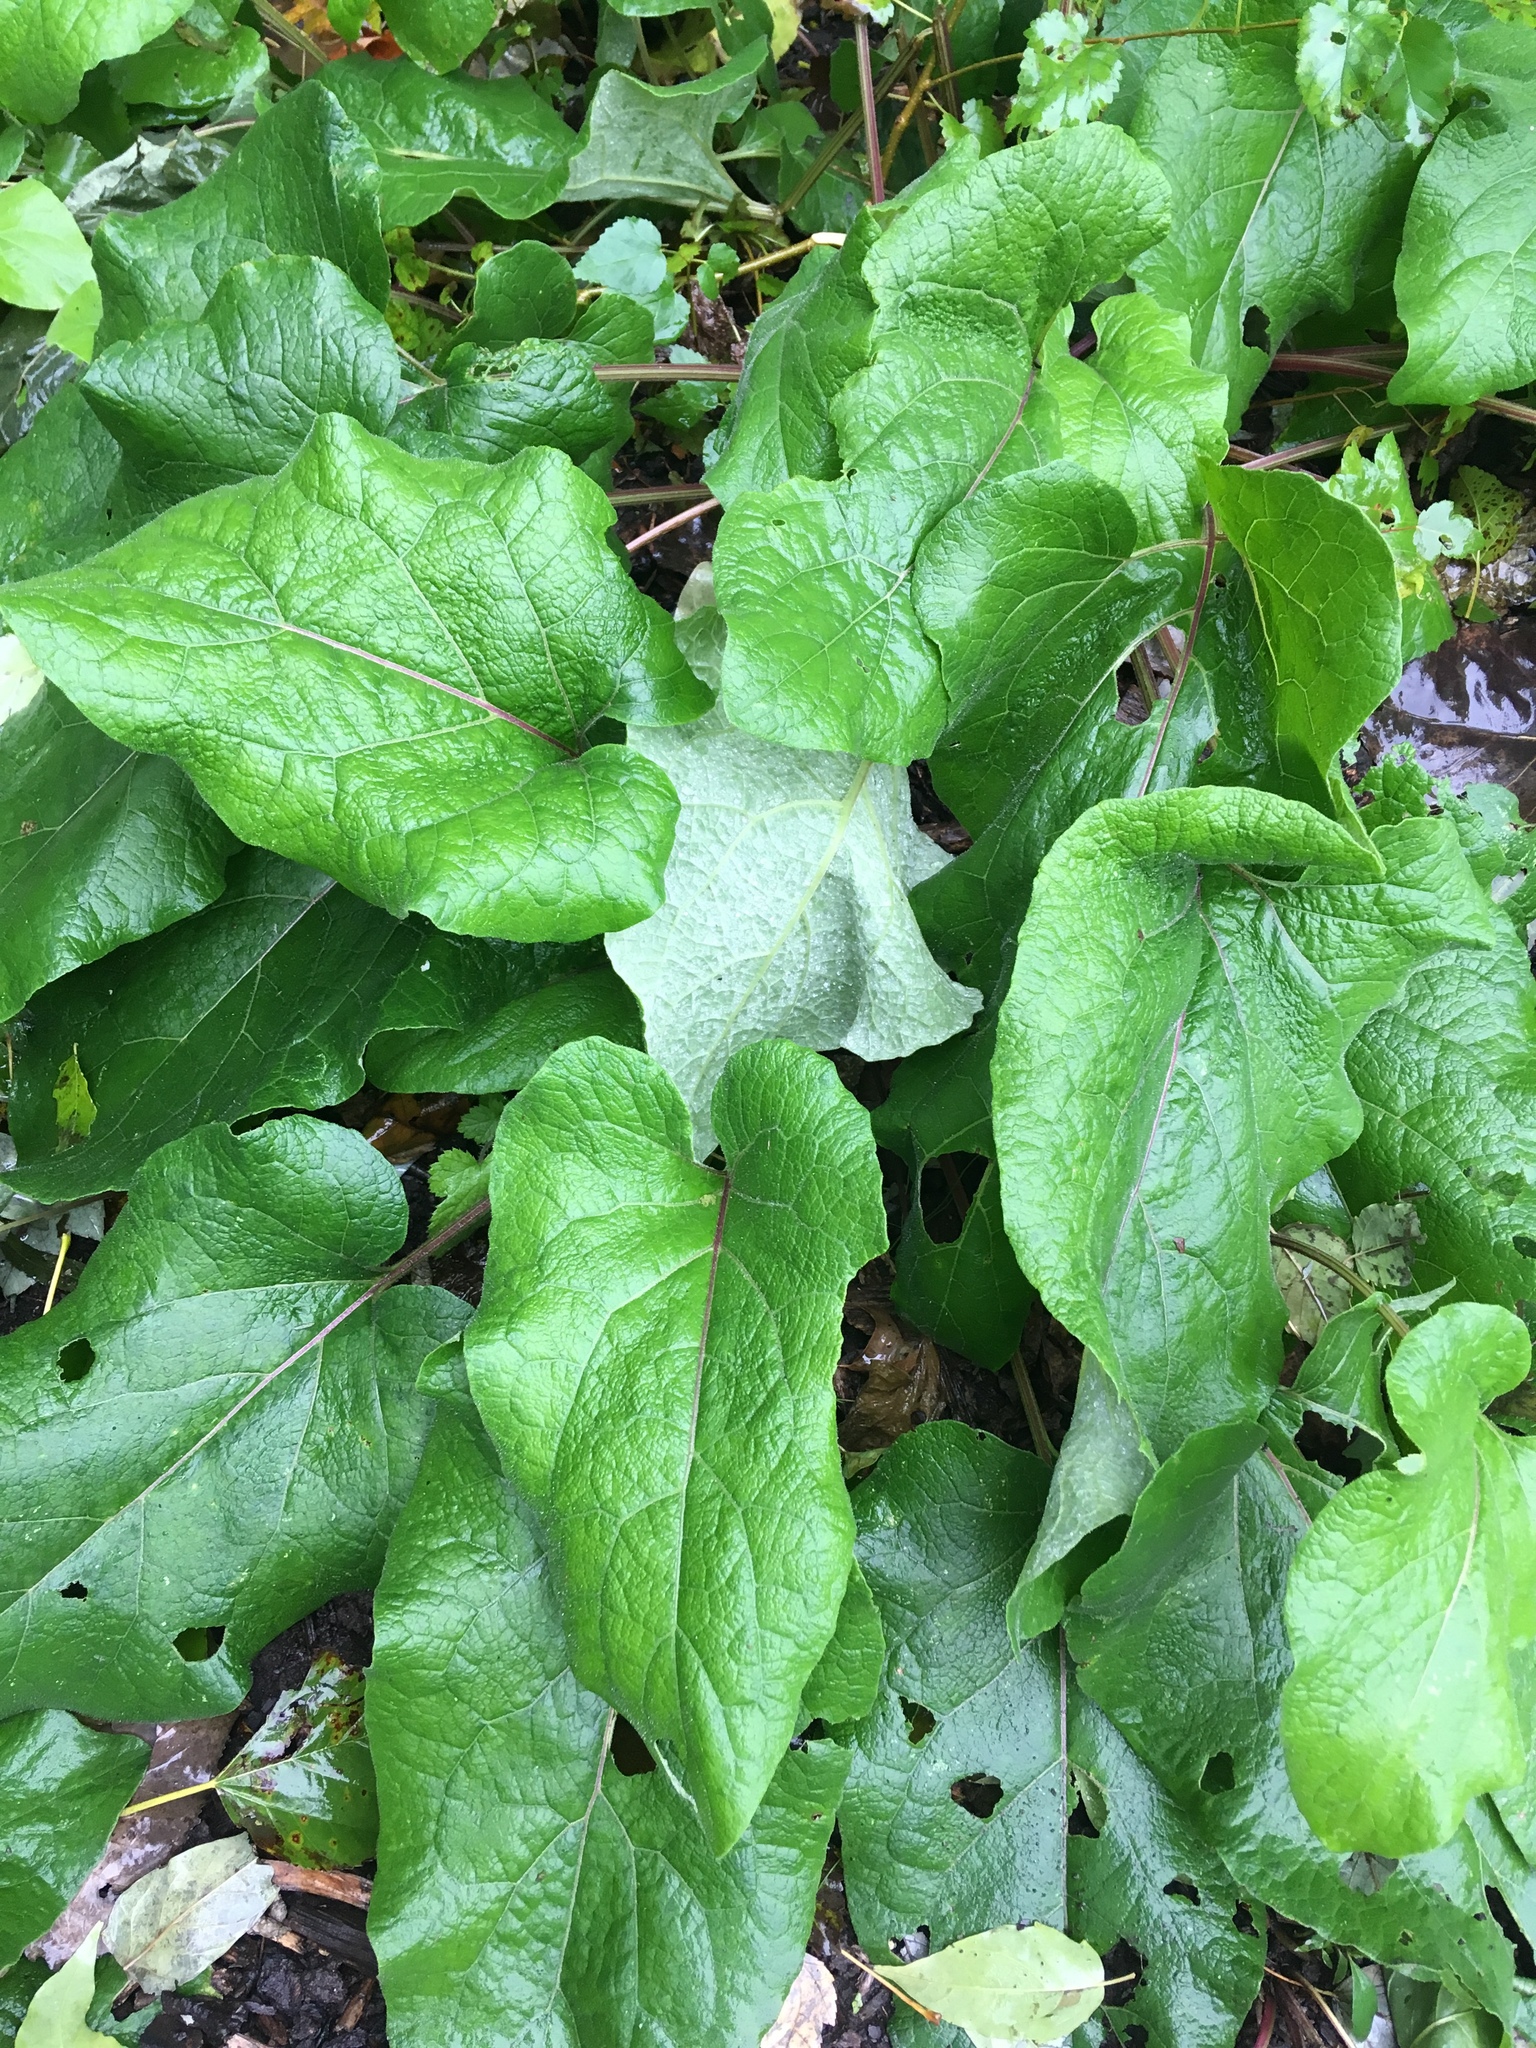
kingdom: Plantae
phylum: Tracheophyta
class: Magnoliopsida
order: Asterales
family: Asteraceae
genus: Arctium
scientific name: Arctium minus
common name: Lesser burdock
